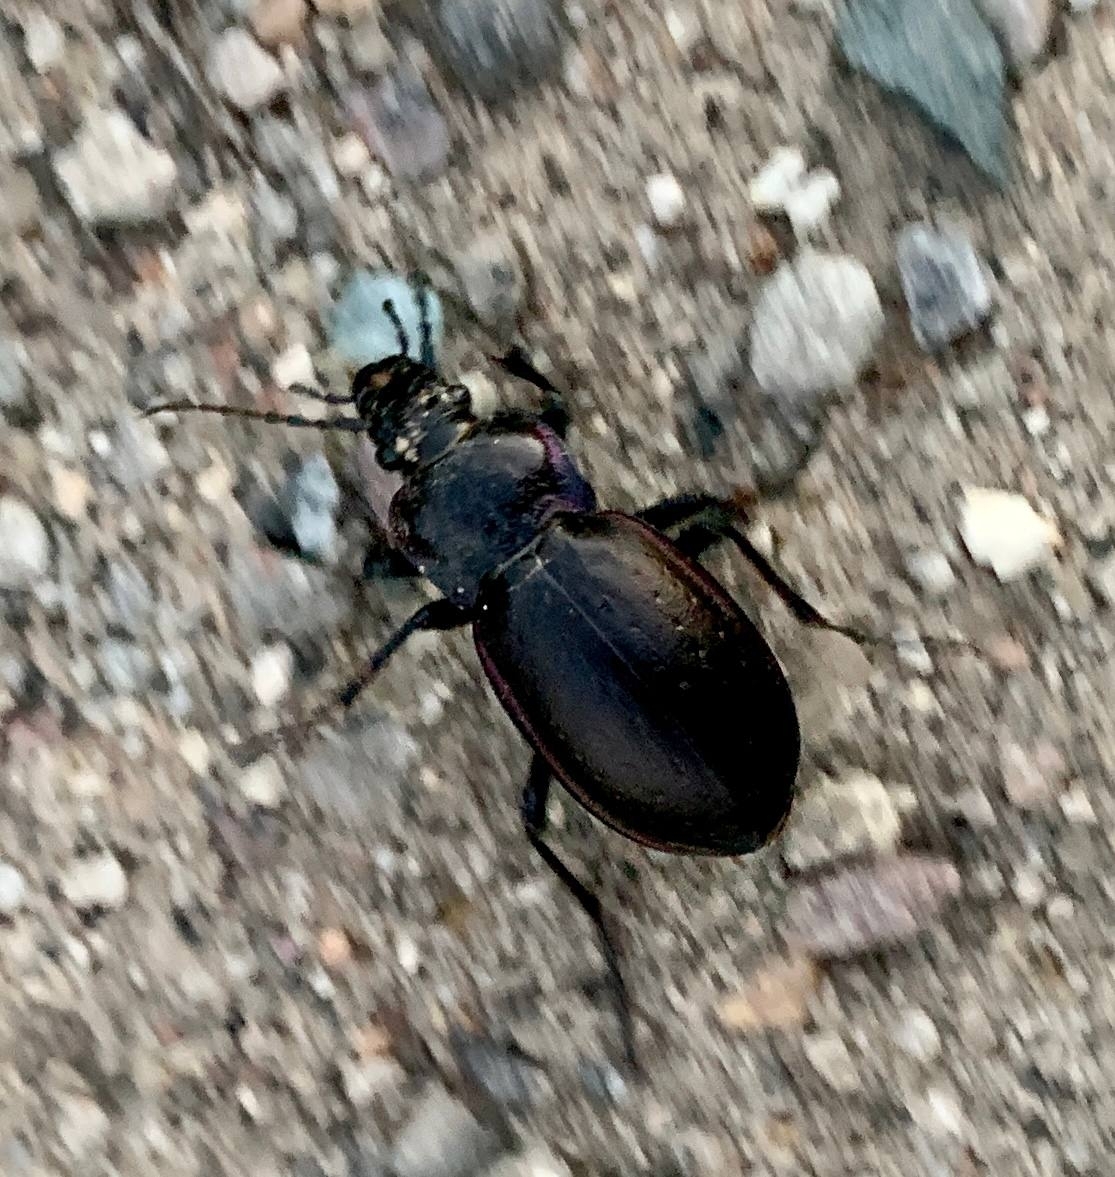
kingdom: Animalia
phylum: Arthropoda
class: Insecta
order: Coleoptera
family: Carabidae
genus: Carabus
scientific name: Carabus nemoralis
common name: European ground beetle
